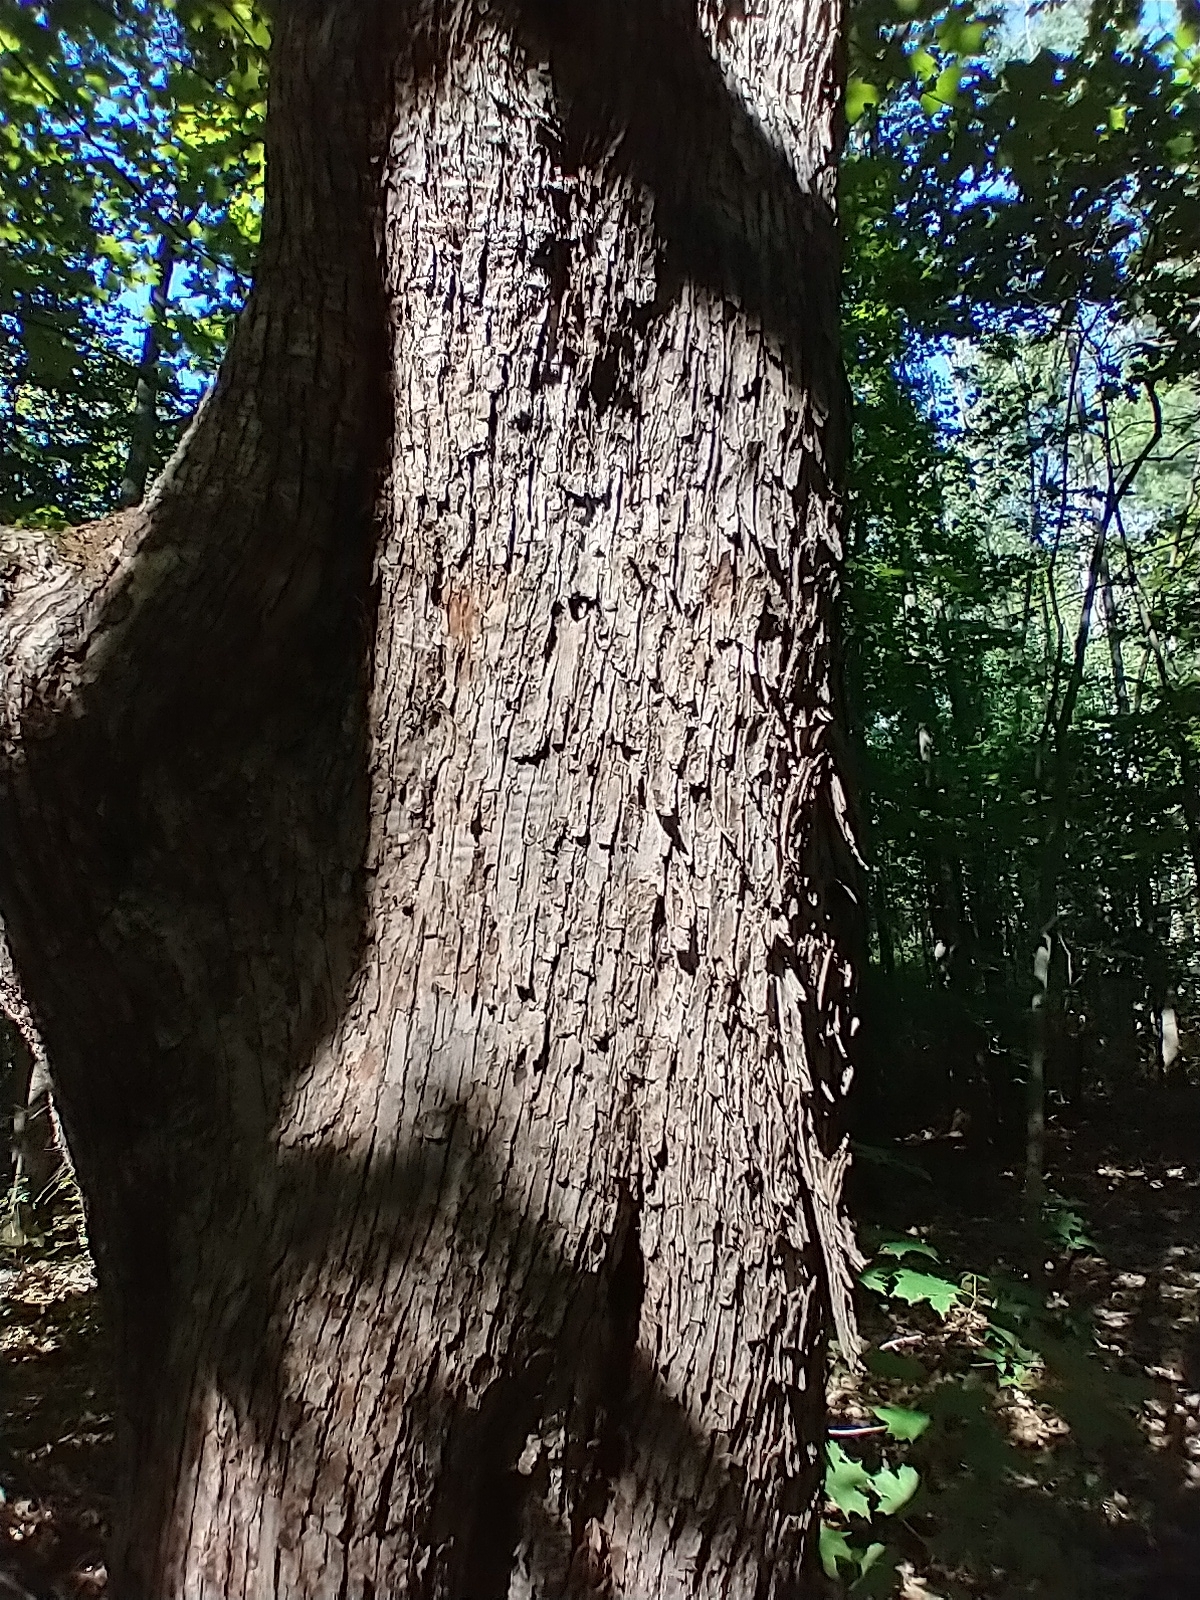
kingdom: Plantae
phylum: Tracheophyta
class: Magnoliopsida
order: Fagales
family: Betulaceae
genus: Ostrya
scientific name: Ostrya virginiana
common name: Ironwood
